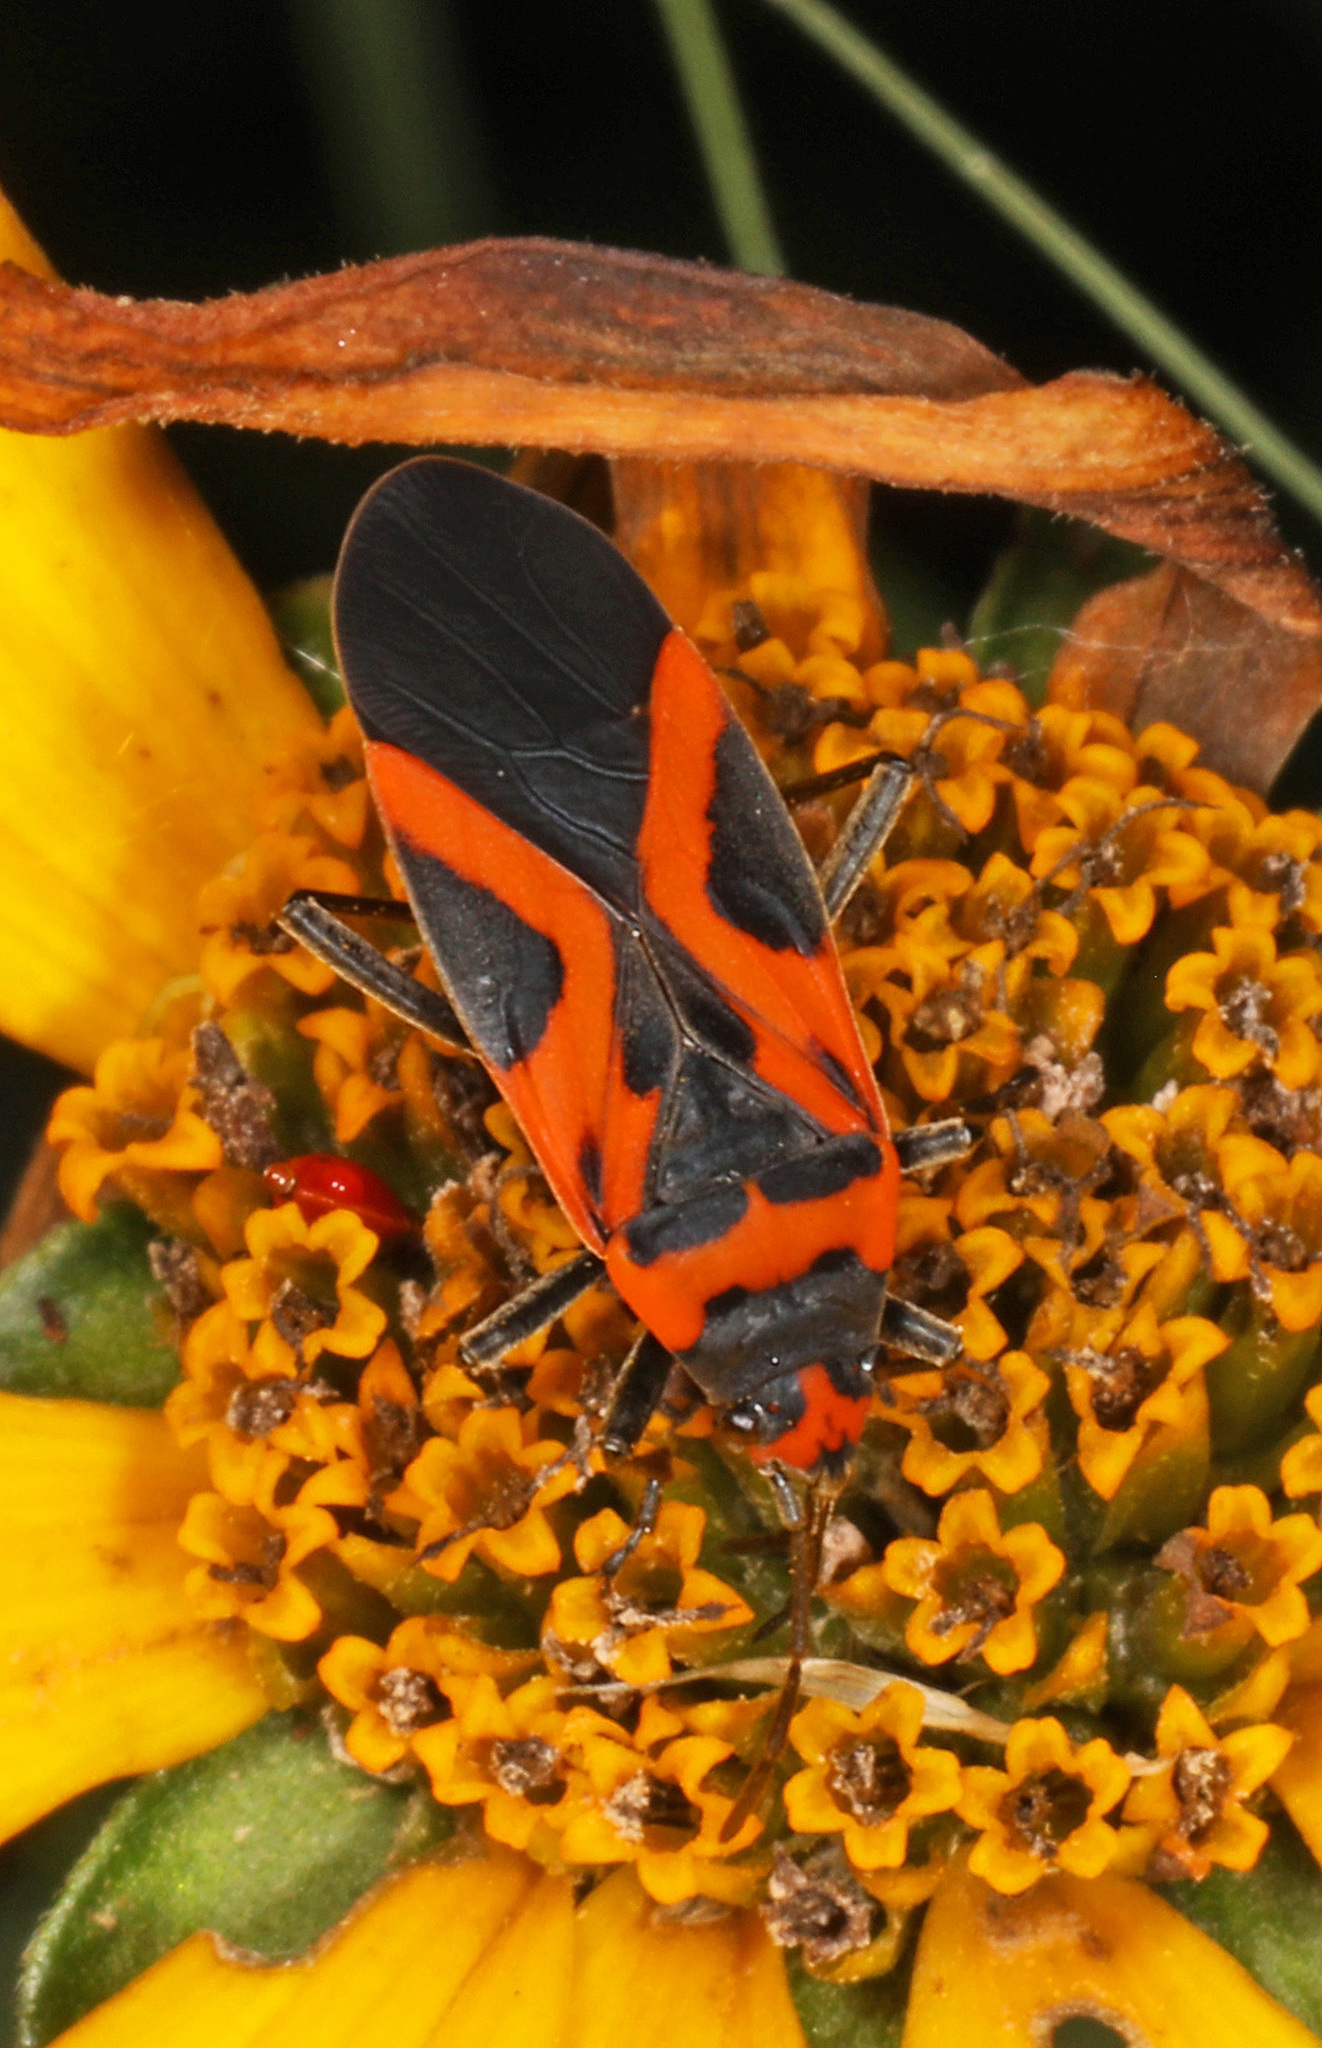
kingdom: Animalia
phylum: Arthropoda
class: Insecta
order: Hemiptera
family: Lygaeidae
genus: Lygaeus
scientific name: Lygaeus turcicus
